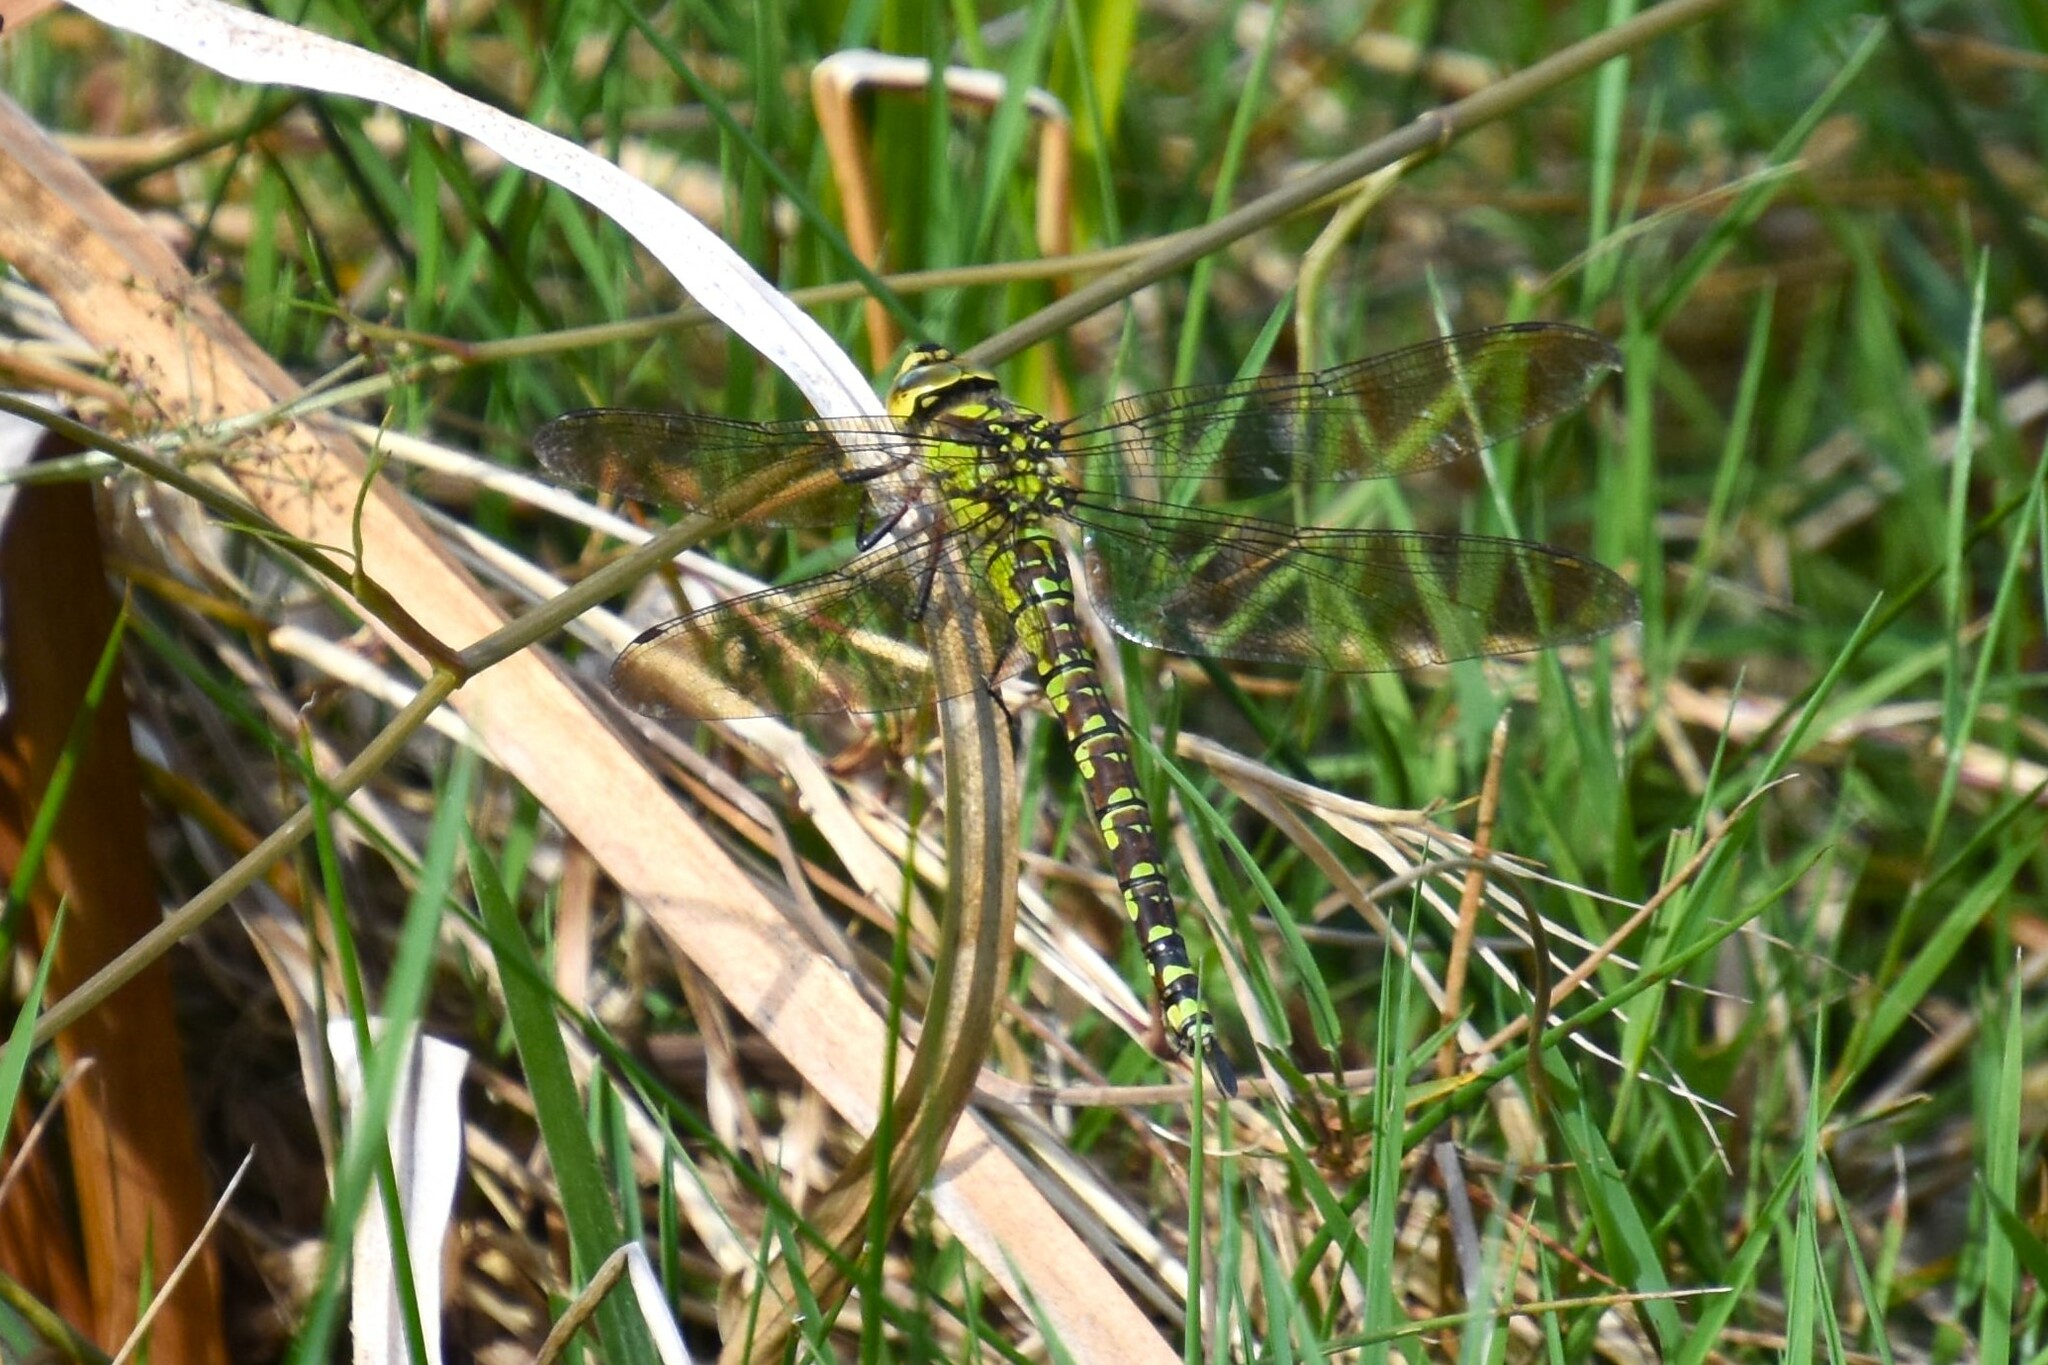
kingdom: Animalia
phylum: Arthropoda
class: Insecta
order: Odonata
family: Aeshnidae
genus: Aeshna
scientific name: Aeshna cyanea
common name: Southern hawker
